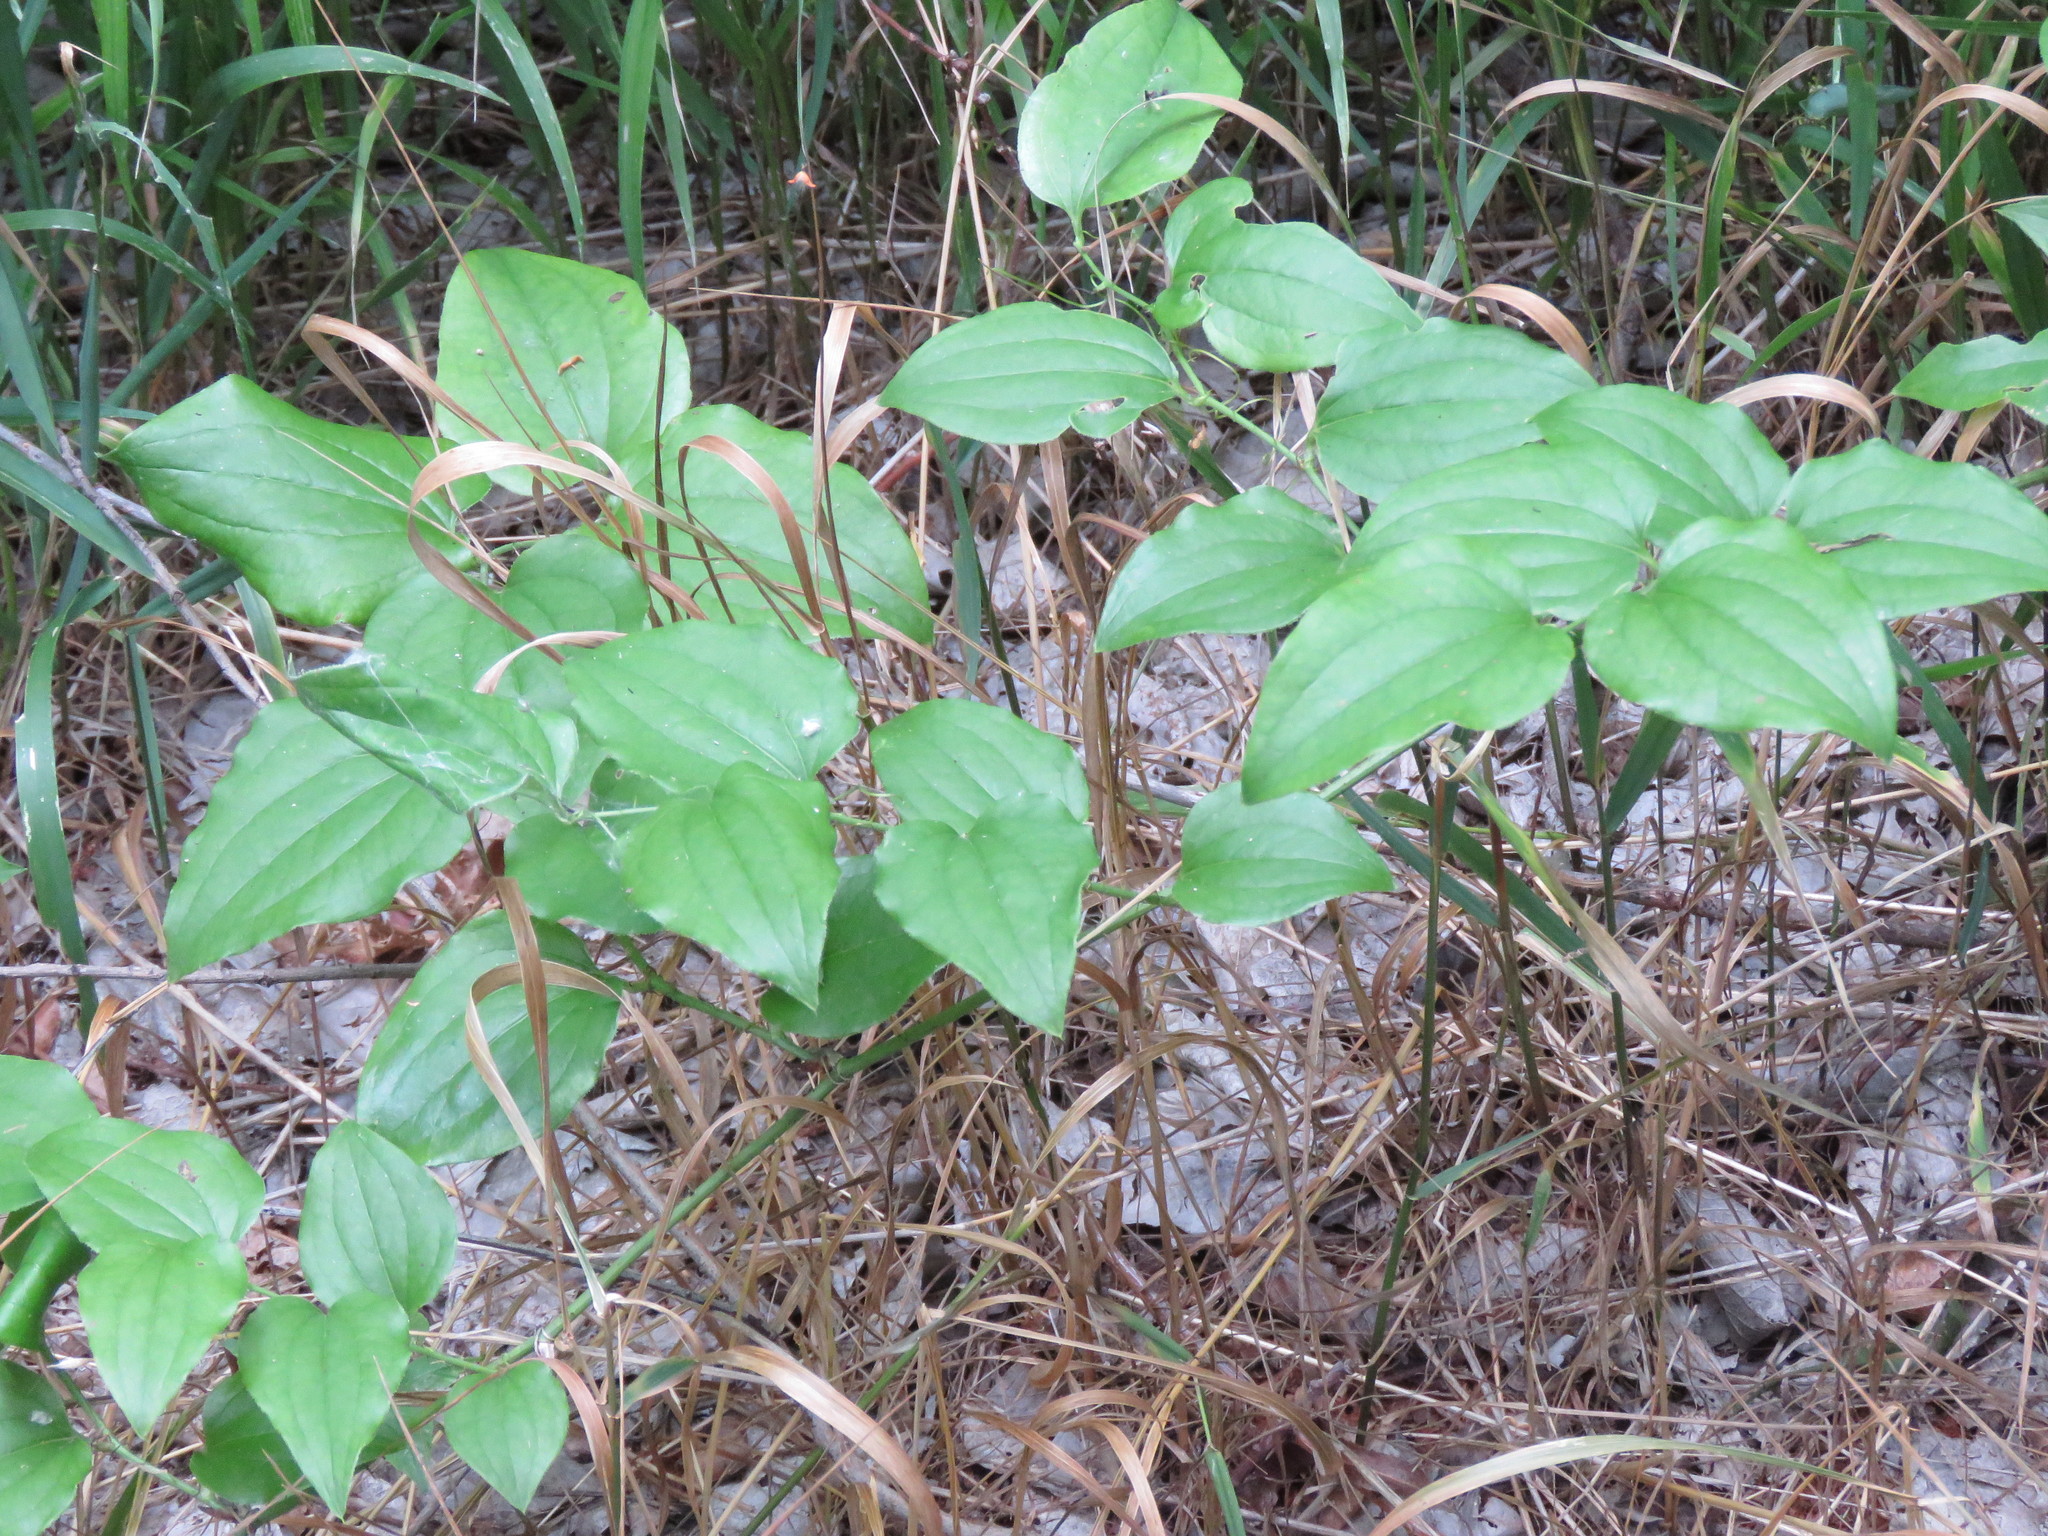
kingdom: Plantae
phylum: Tracheophyta
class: Liliopsida
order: Liliales
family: Smilacaceae
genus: Smilax
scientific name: Smilax tamnoides
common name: Hellfetter
